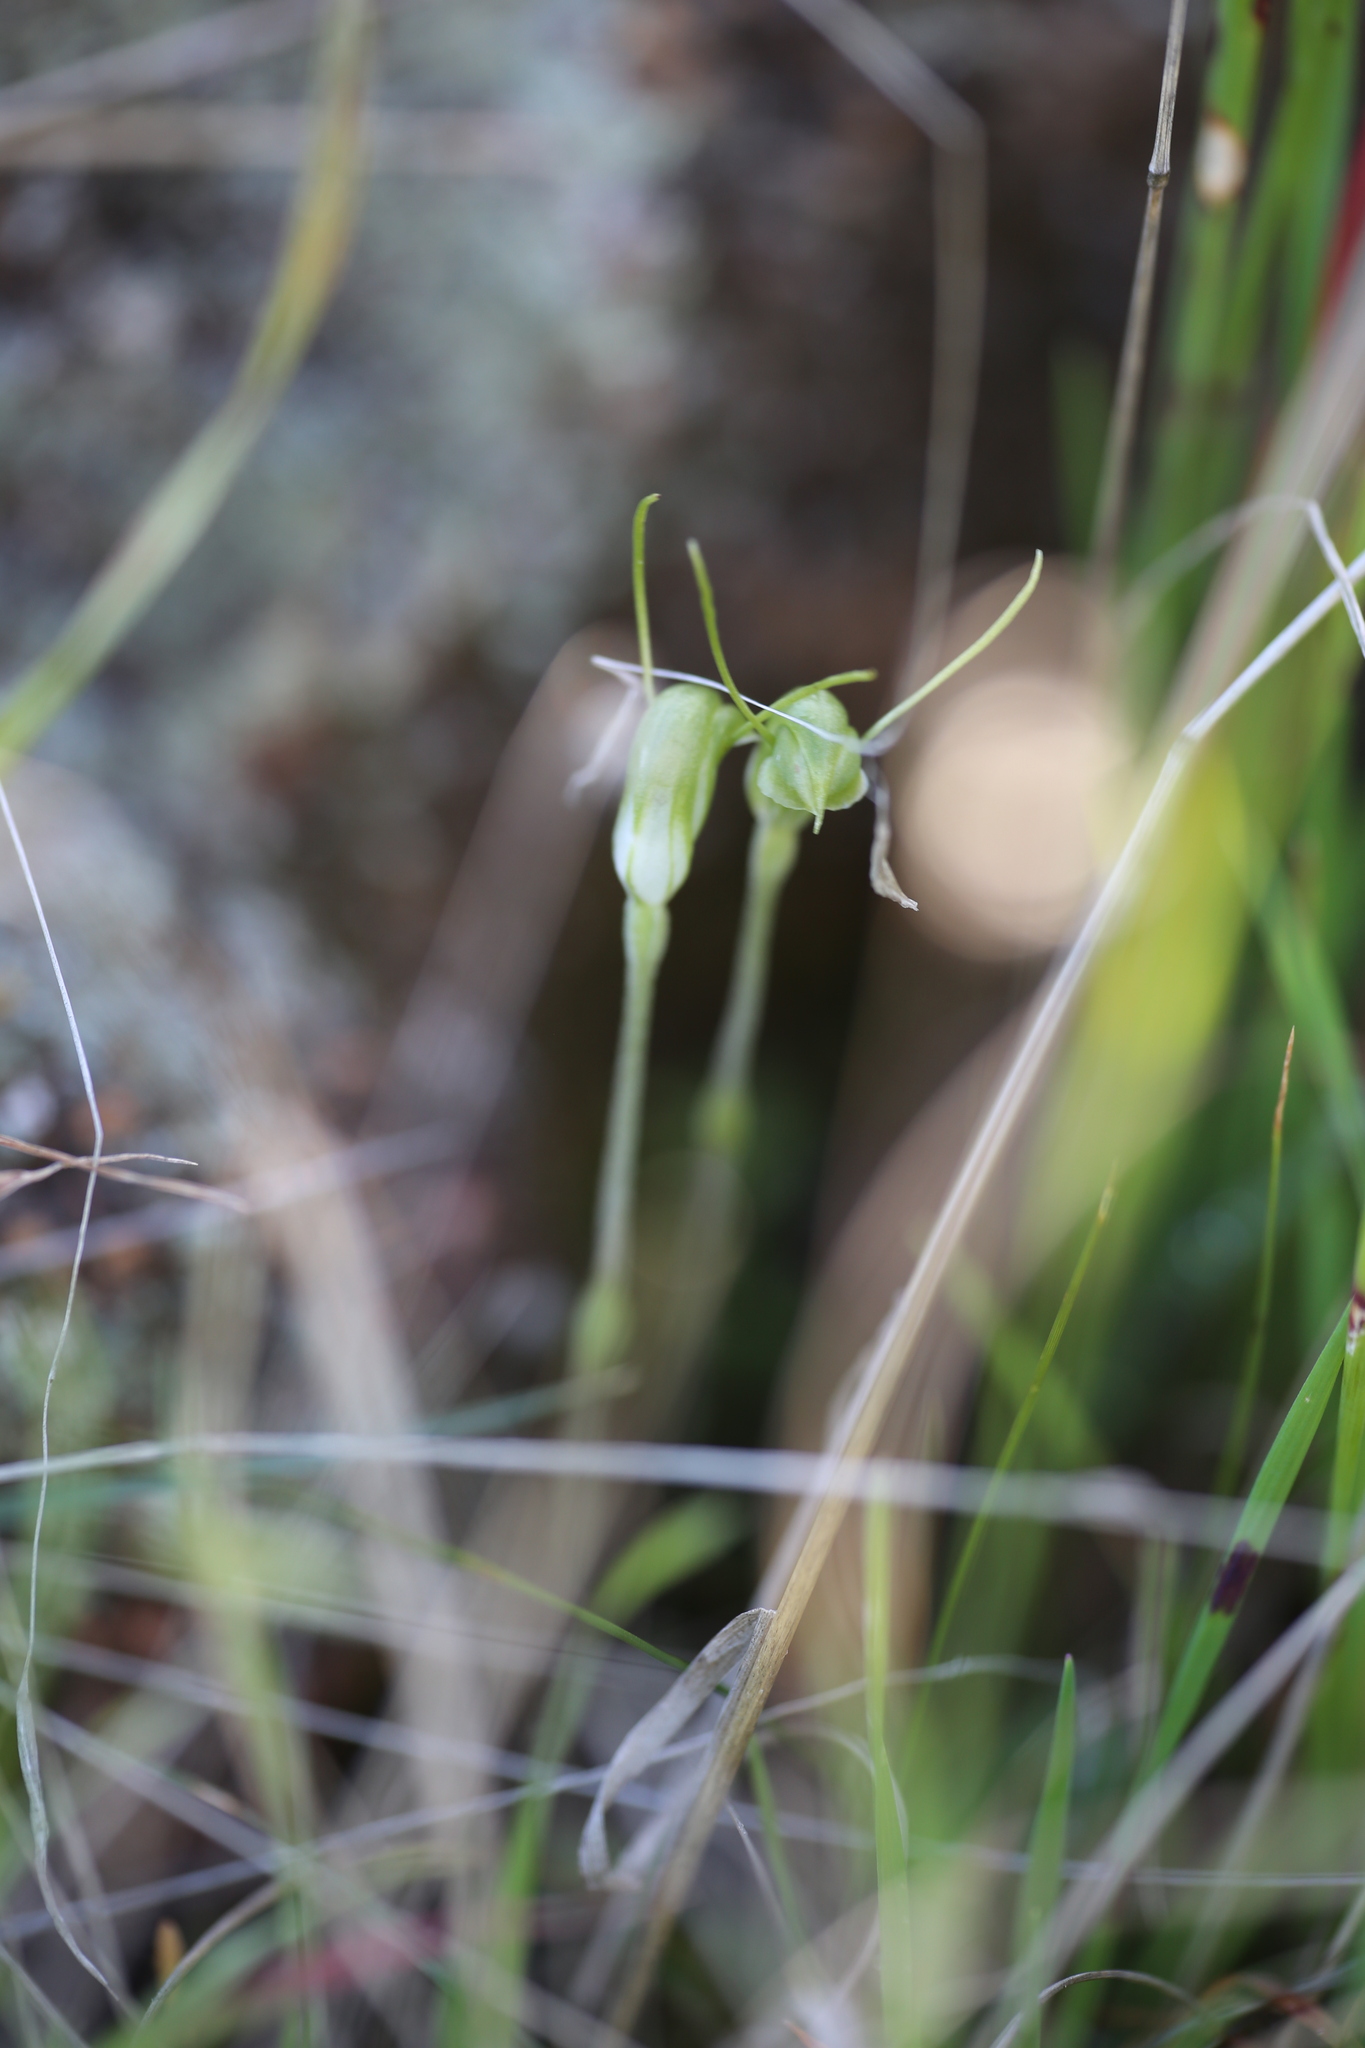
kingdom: Plantae
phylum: Tracheophyta
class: Liliopsida
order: Asparagales
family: Orchidaceae
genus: Pterostylis
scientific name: Pterostylis setulosa
